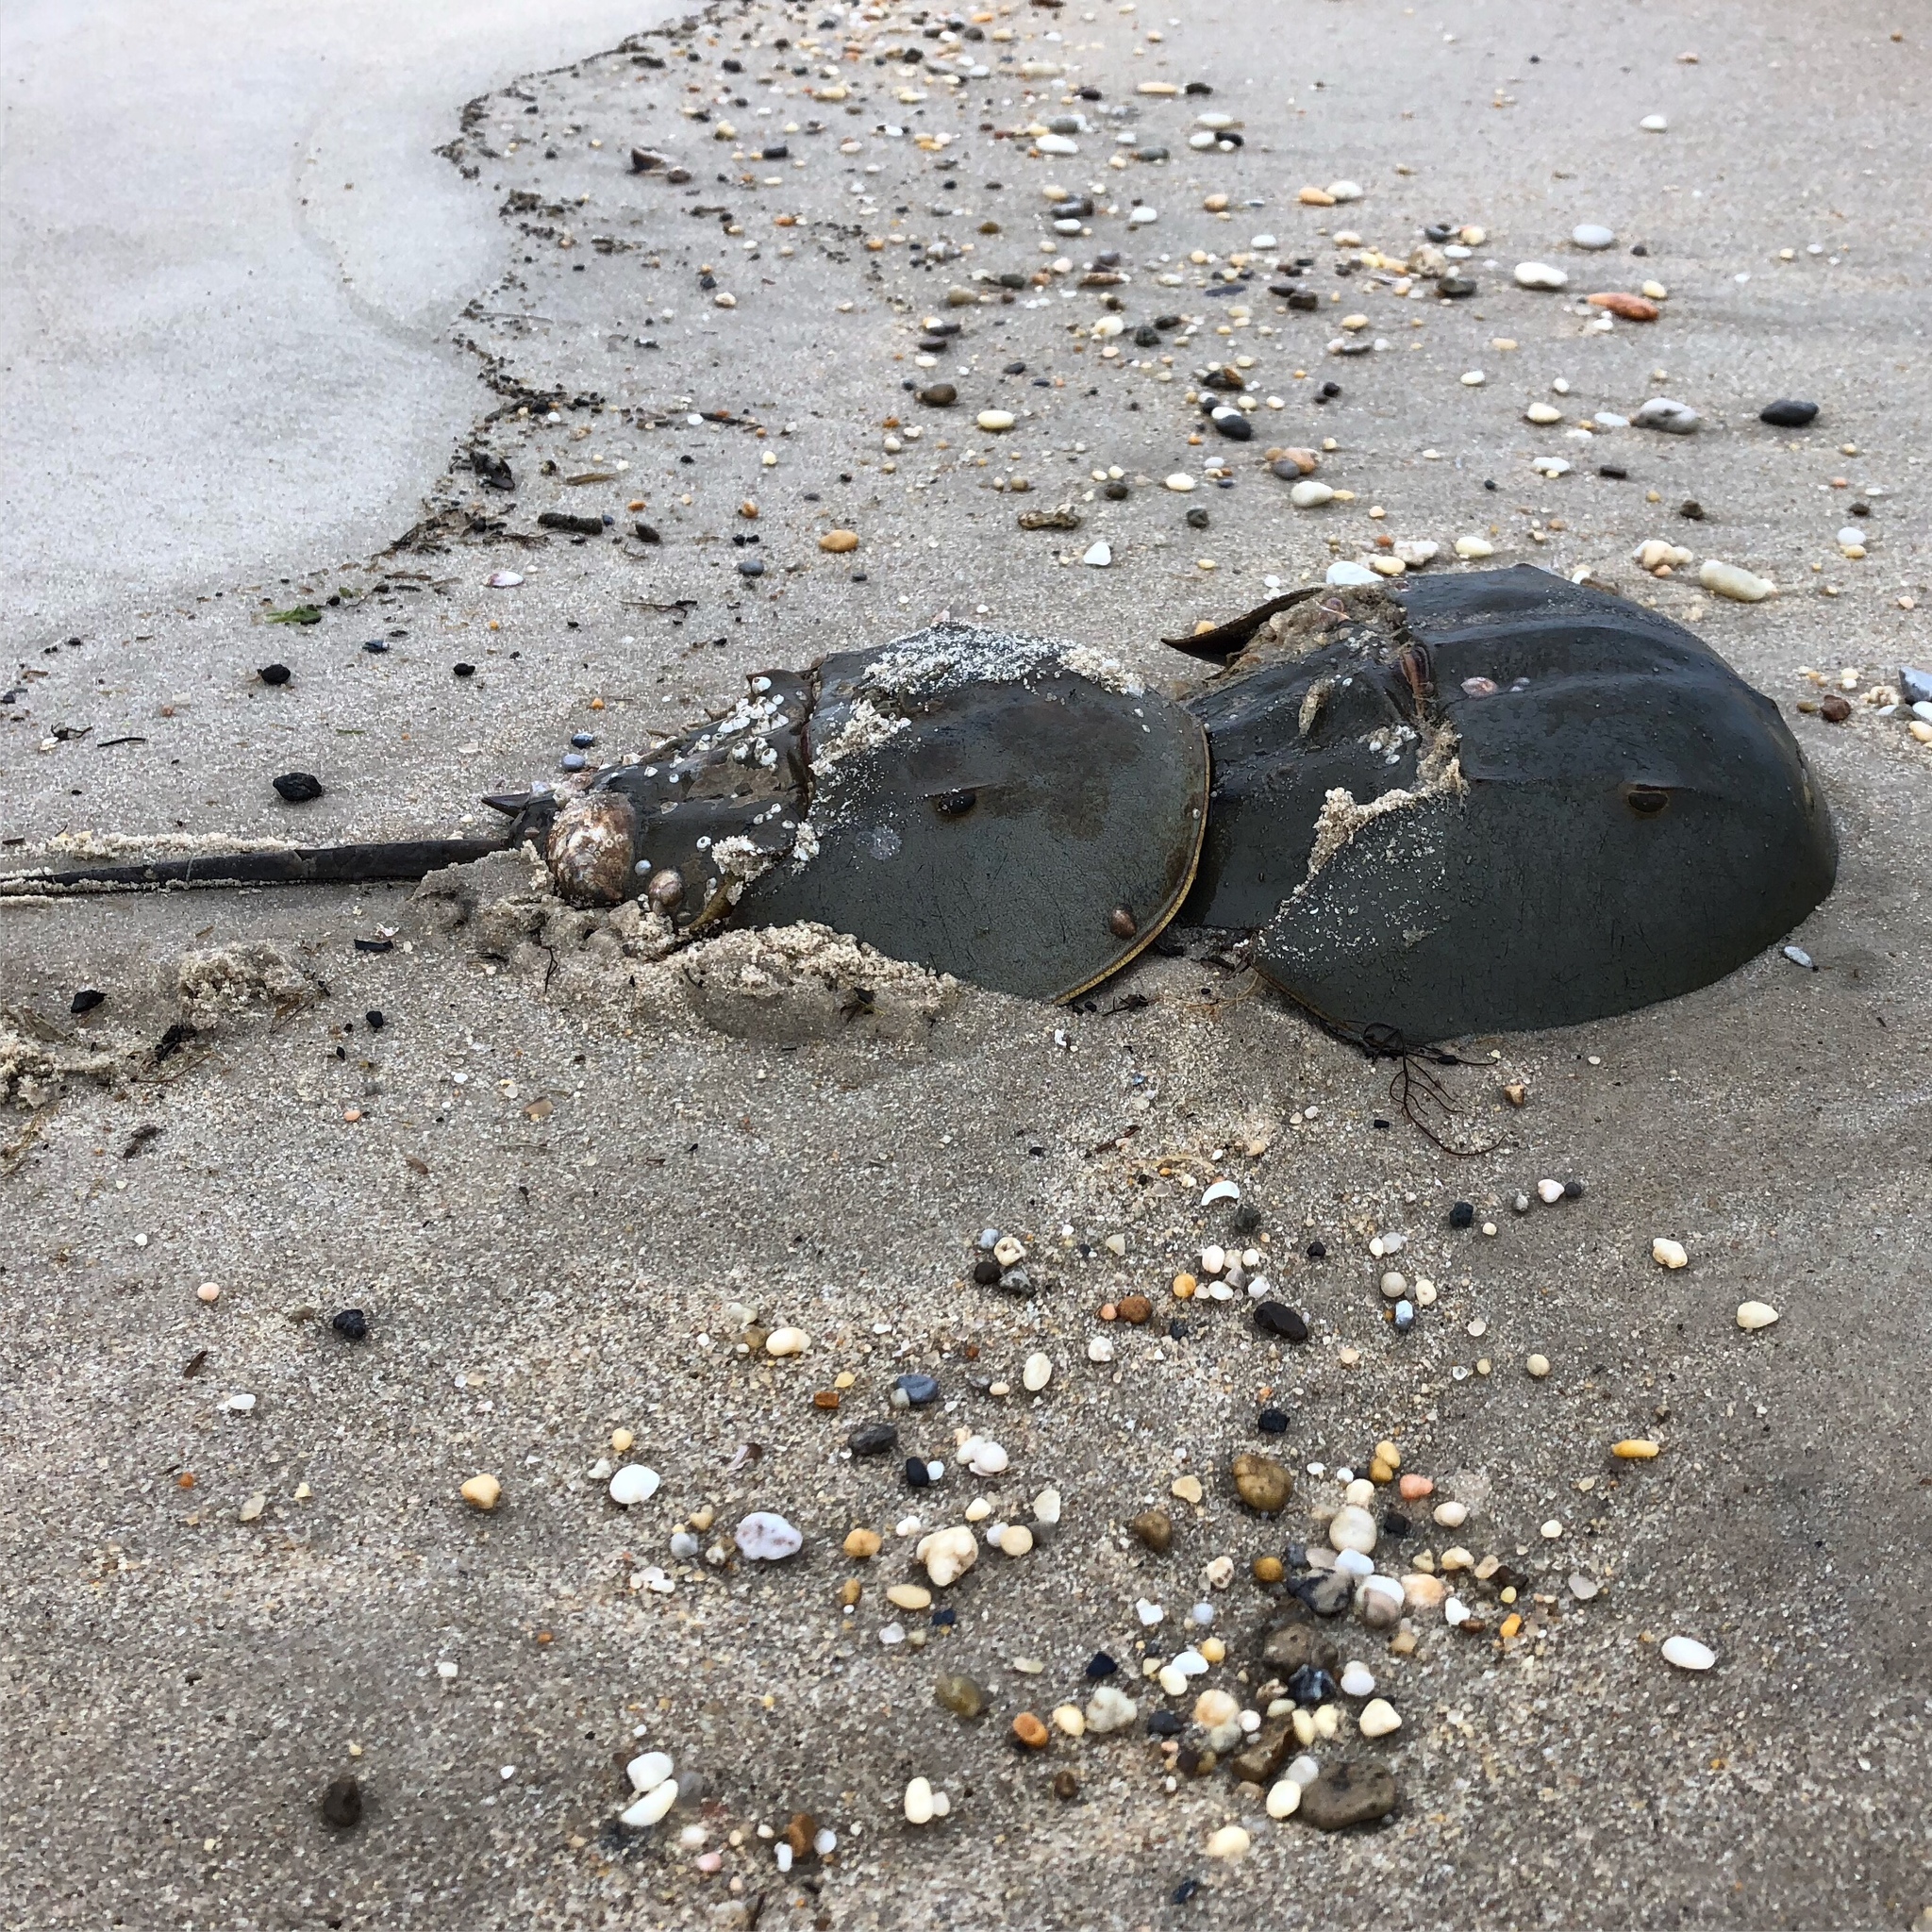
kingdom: Animalia
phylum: Arthropoda
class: Merostomata
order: Xiphosurida
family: Limulidae
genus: Limulus
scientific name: Limulus polyphemus
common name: Horseshoe crab
